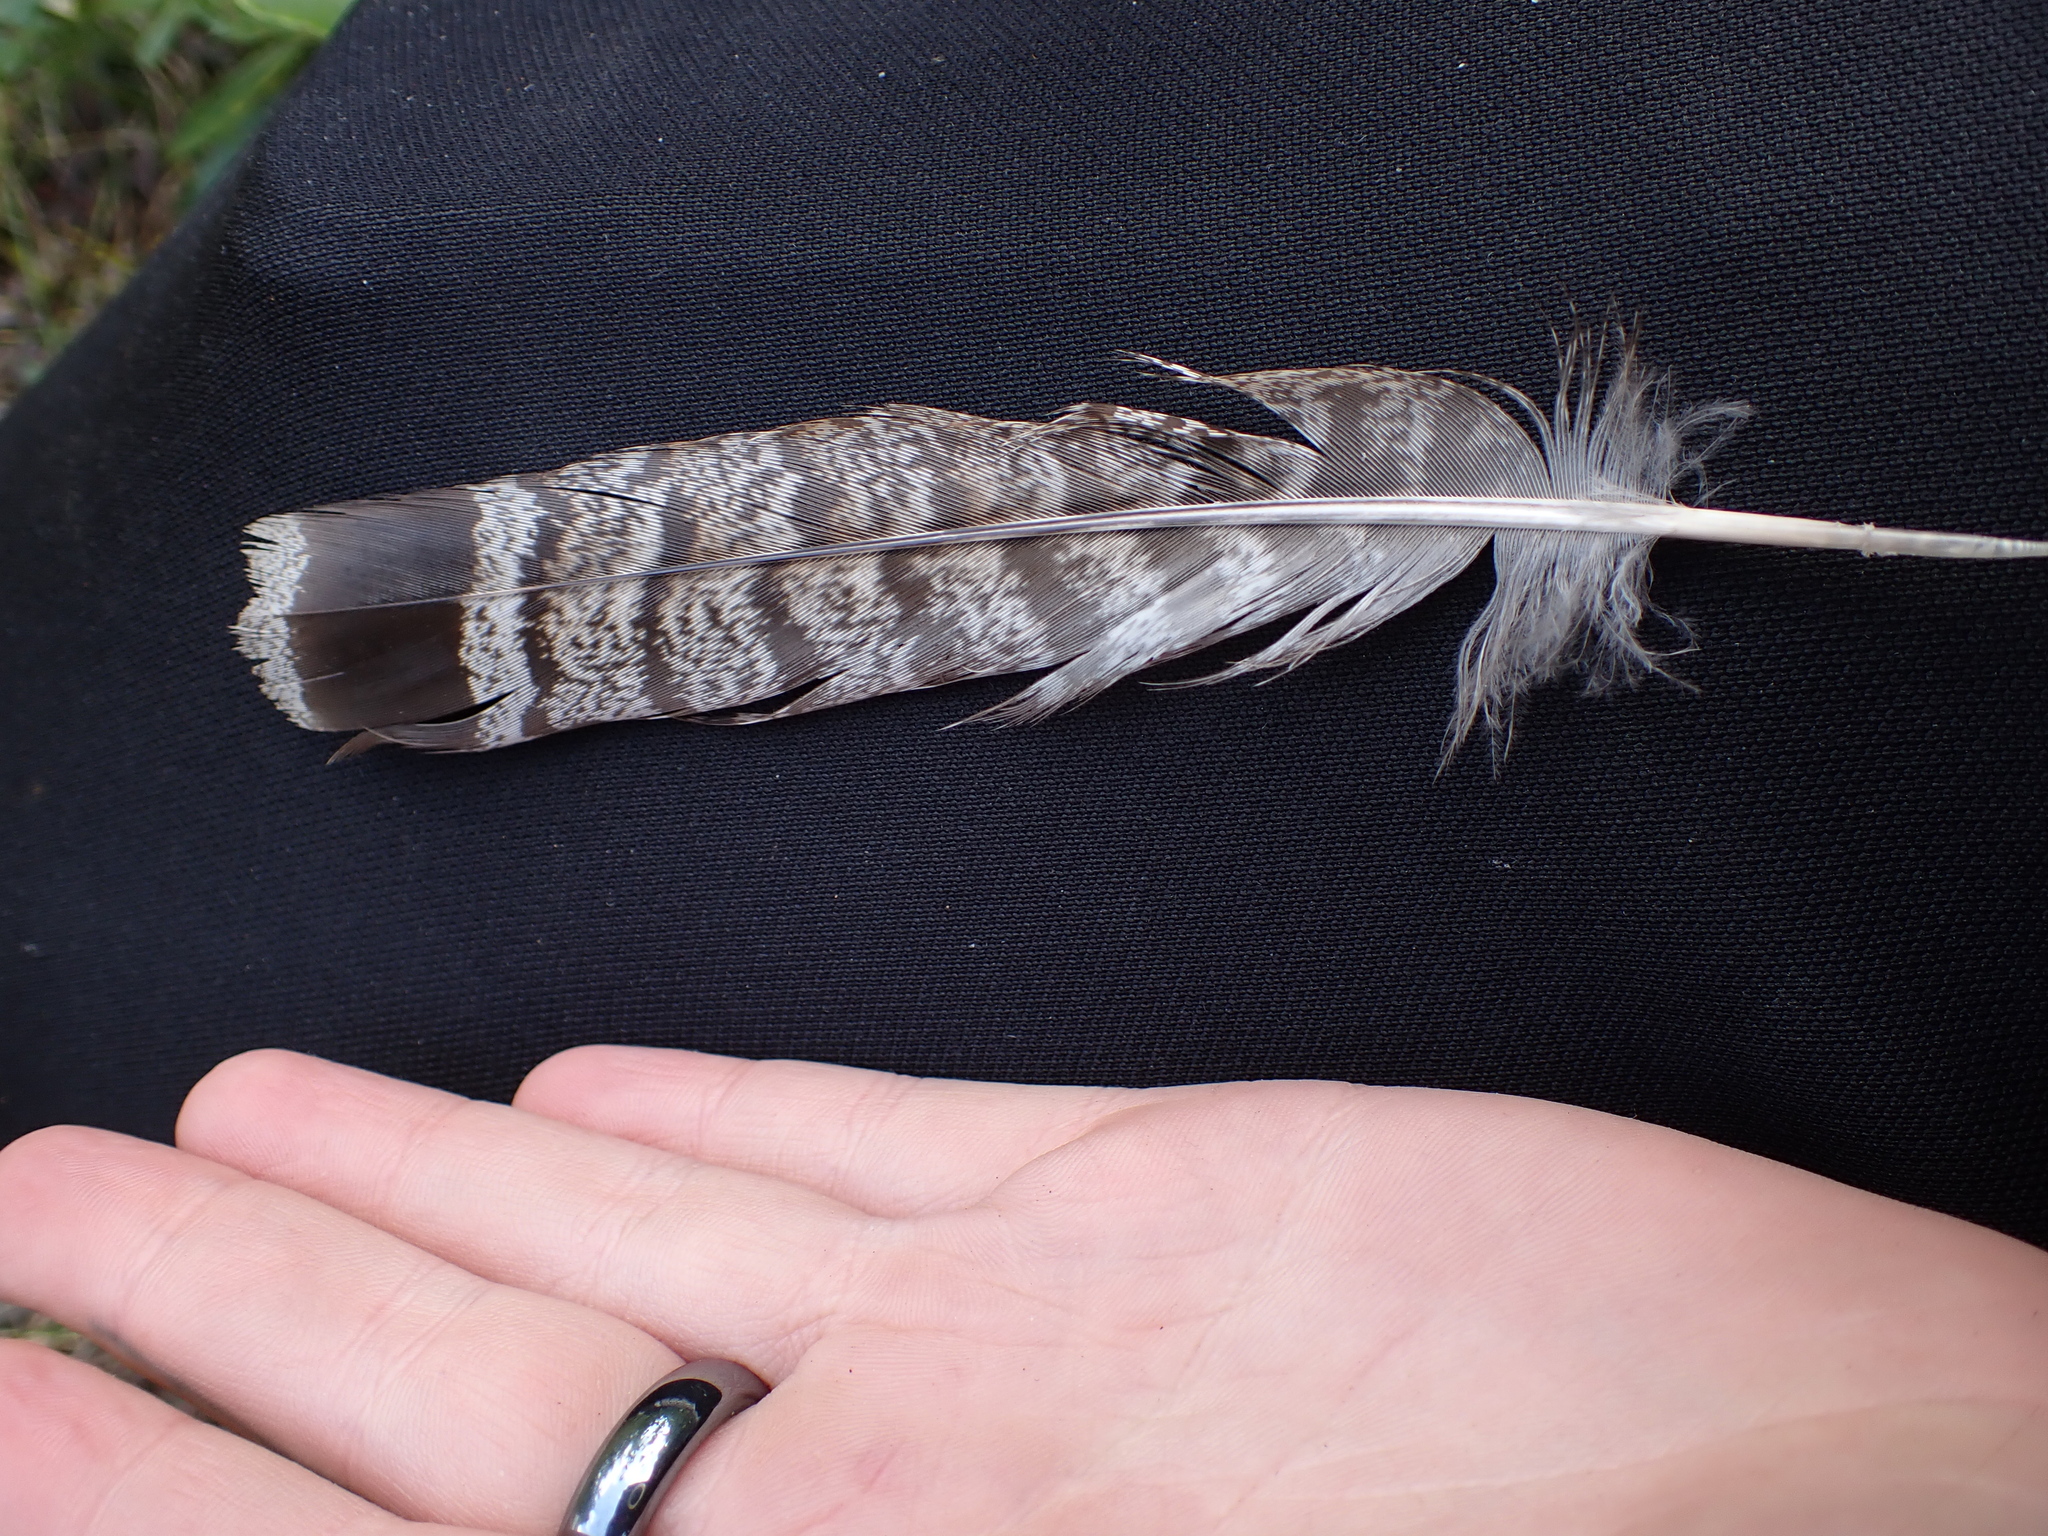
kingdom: Animalia
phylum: Chordata
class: Aves
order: Galliformes
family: Phasianidae
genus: Bonasa
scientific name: Bonasa umbellus
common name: Ruffed grouse
